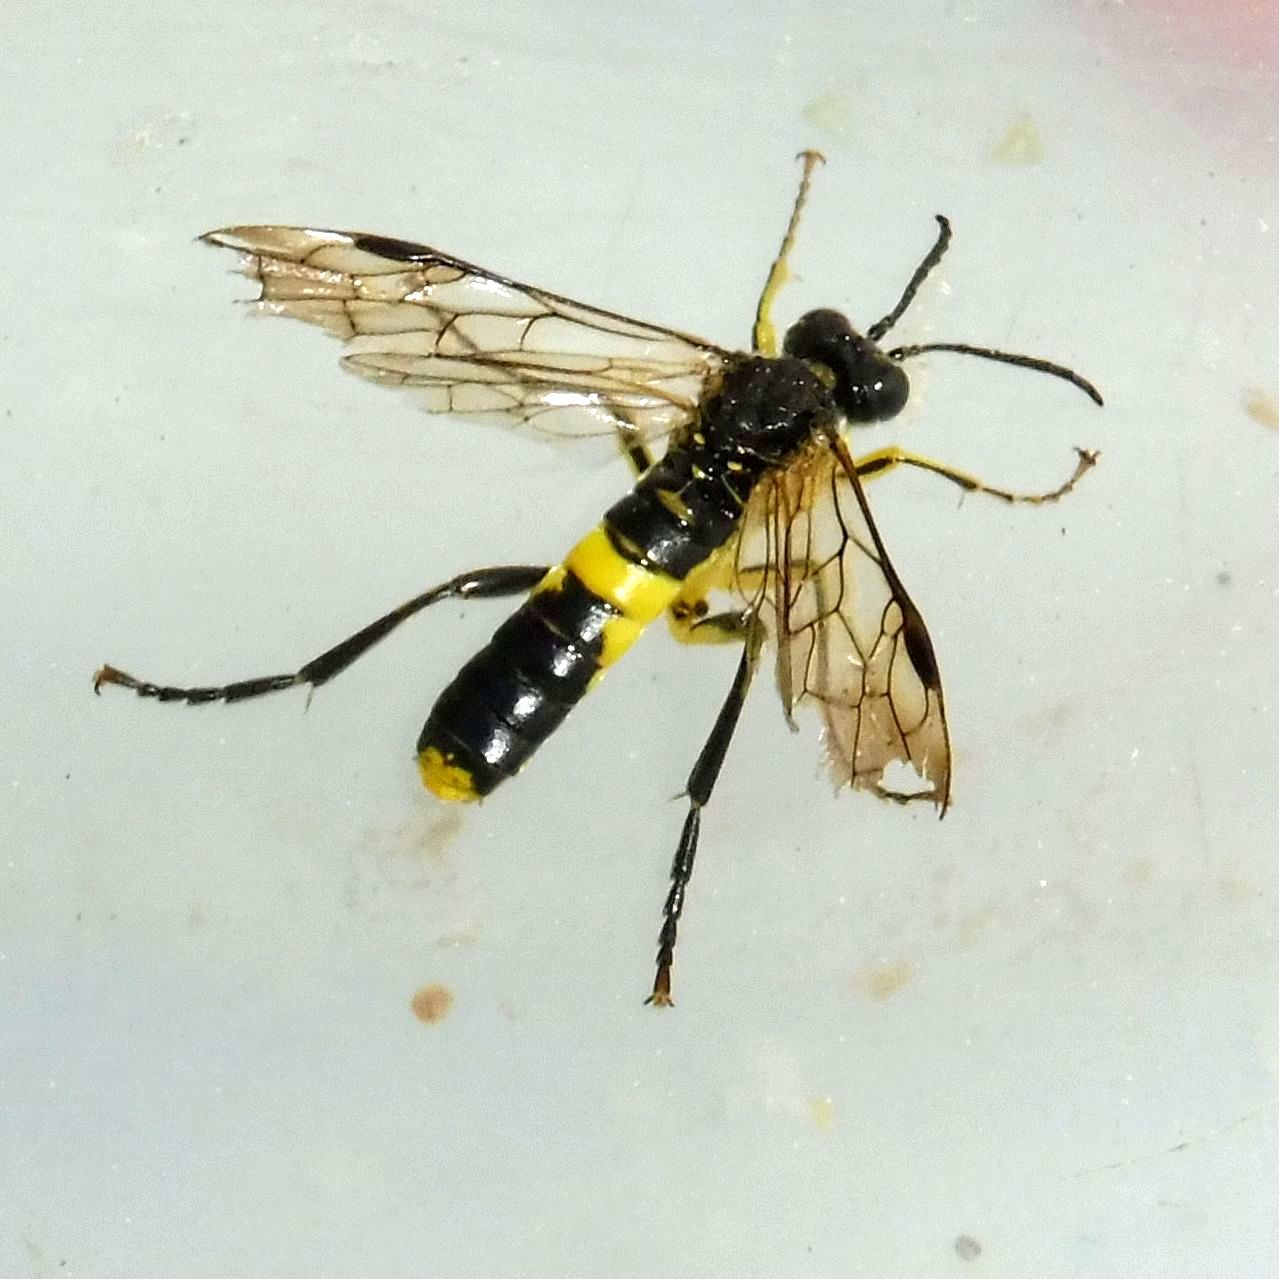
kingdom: Animalia
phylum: Arthropoda
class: Insecta
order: Hymenoptera
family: Tenthredinidae
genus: Tenthredo
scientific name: Tenthredo temula
